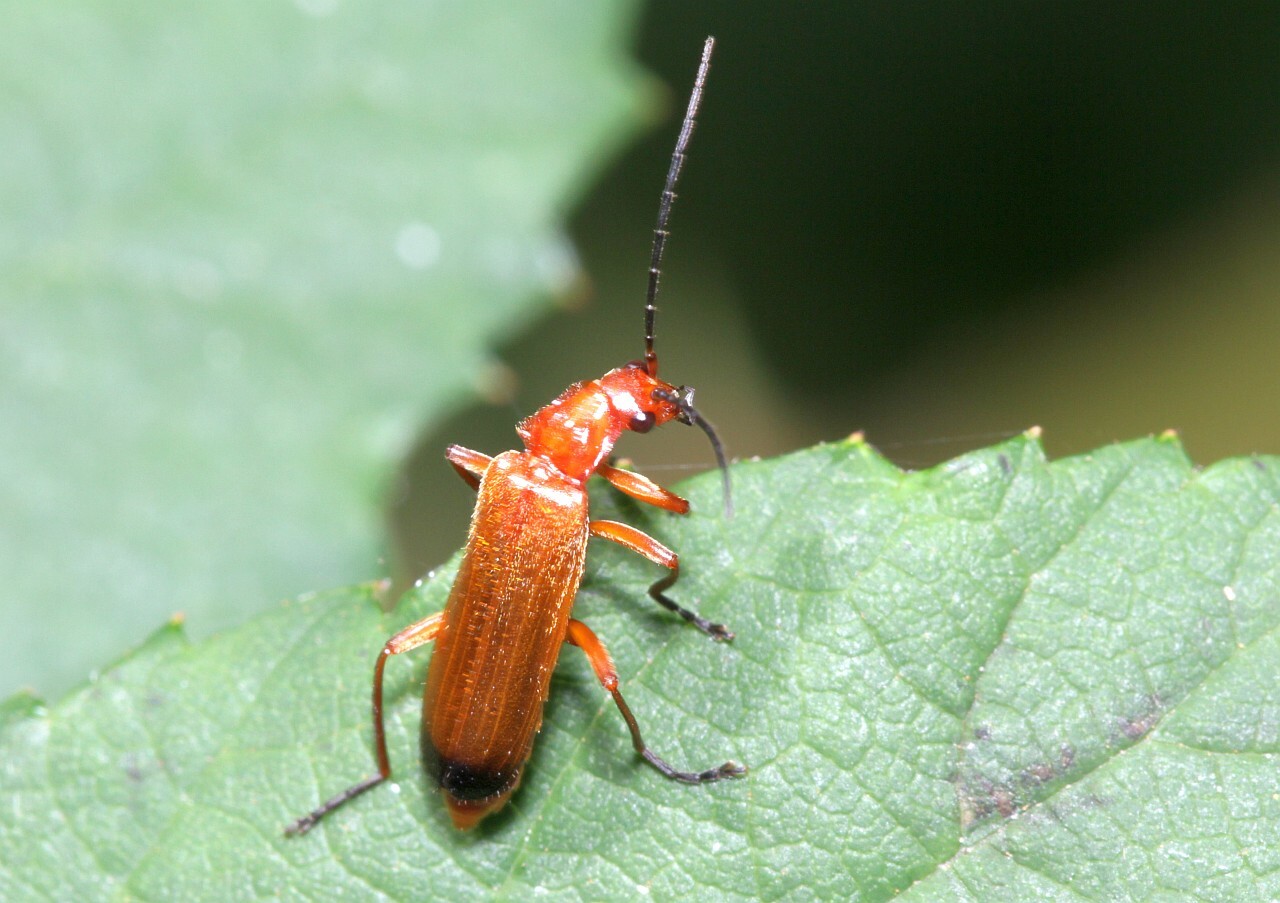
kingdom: Animalia
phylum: Arthropoda
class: Insecta
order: Coleoptera
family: Cantharidae
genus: Rhagonycha
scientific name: Rhagonycha fulva
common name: Common red soldier beetle
